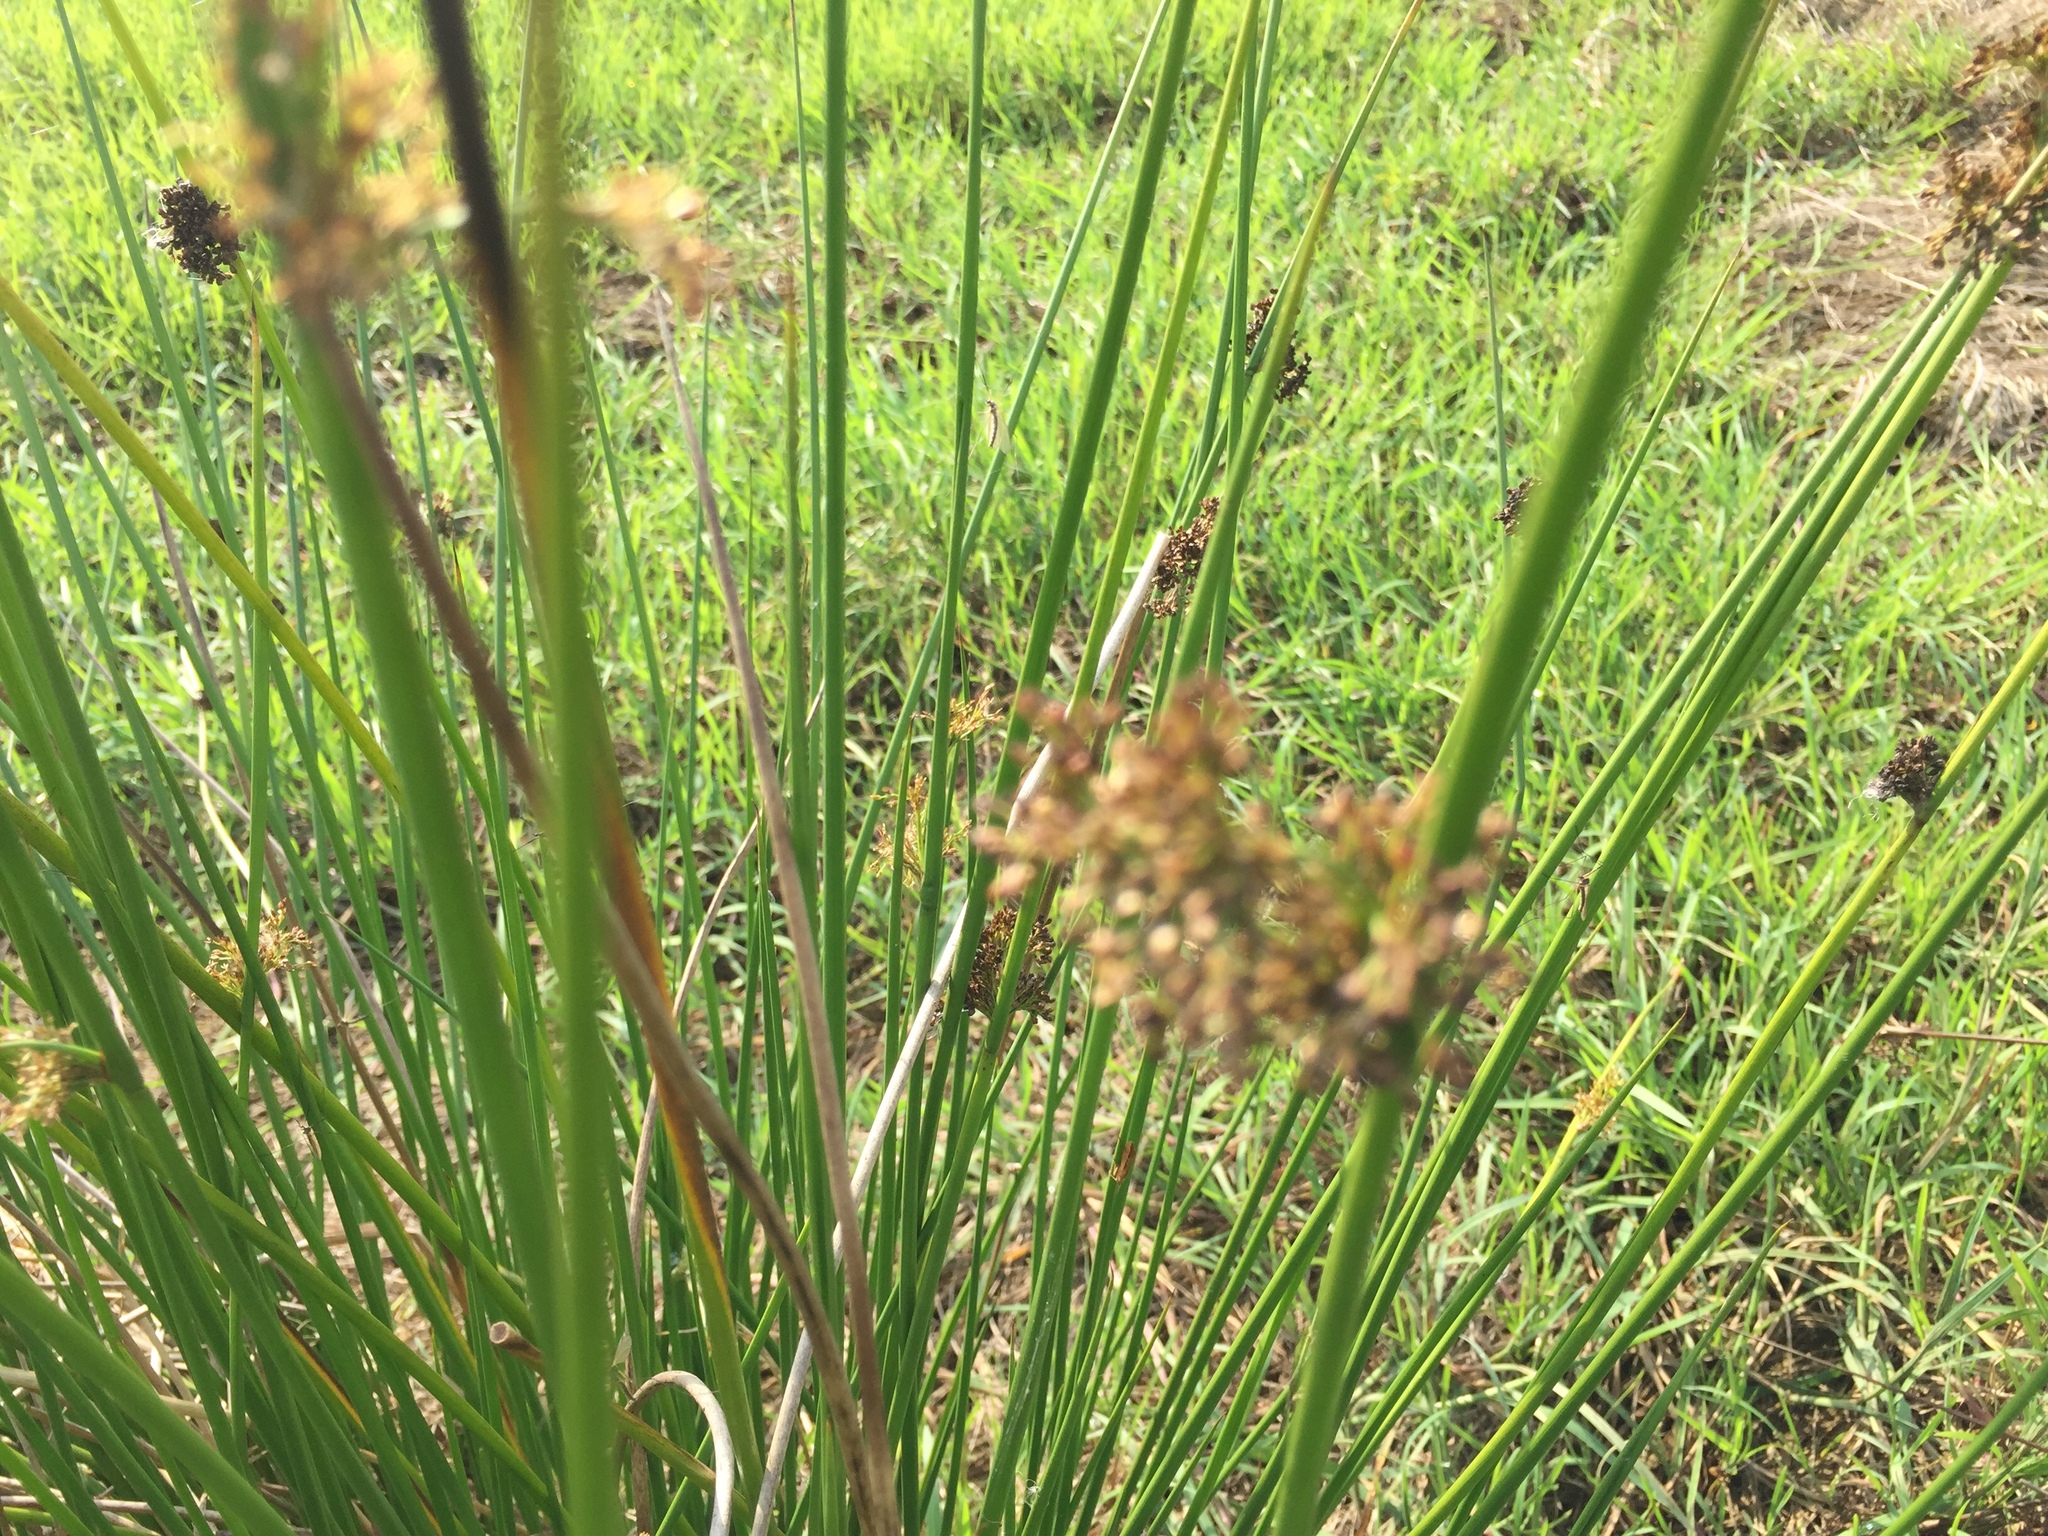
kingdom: Plantae
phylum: Tracheophyta
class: Liliopsida
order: Poales
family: Juncaceae
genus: Juncus
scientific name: Juncus effusus
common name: Soft rush
